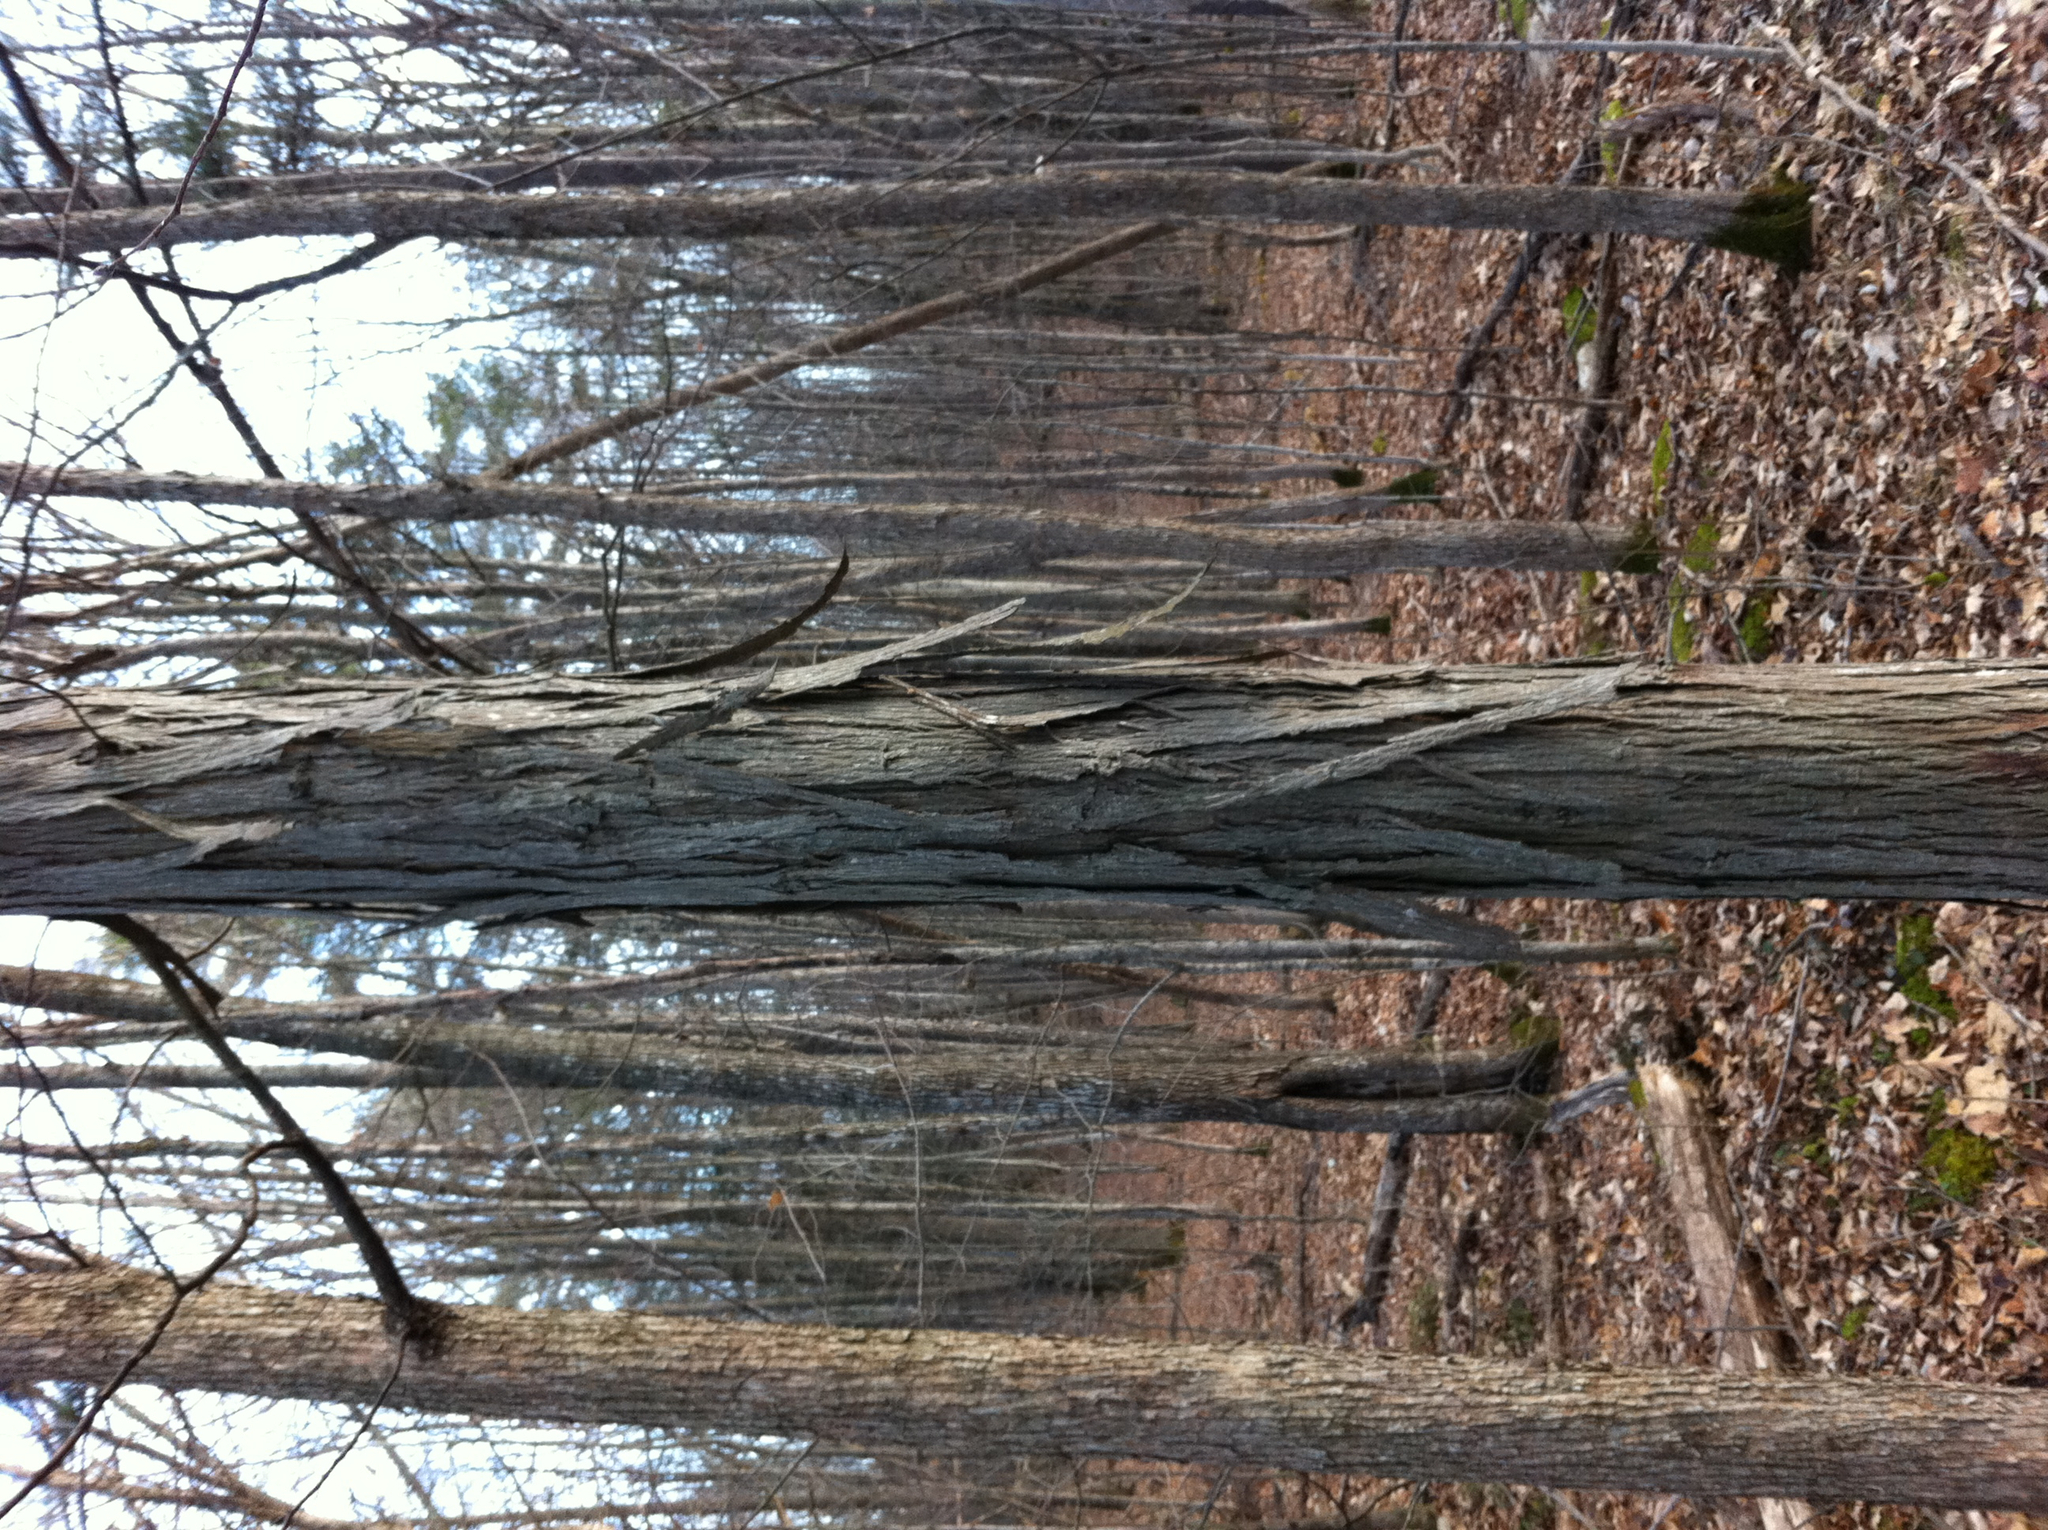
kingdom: Plantae
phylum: Tracheophyta
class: Magnoliopsida
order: Fagales
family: Juglandaceae
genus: Carya
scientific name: Carya ovata
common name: Shagbark hickory
